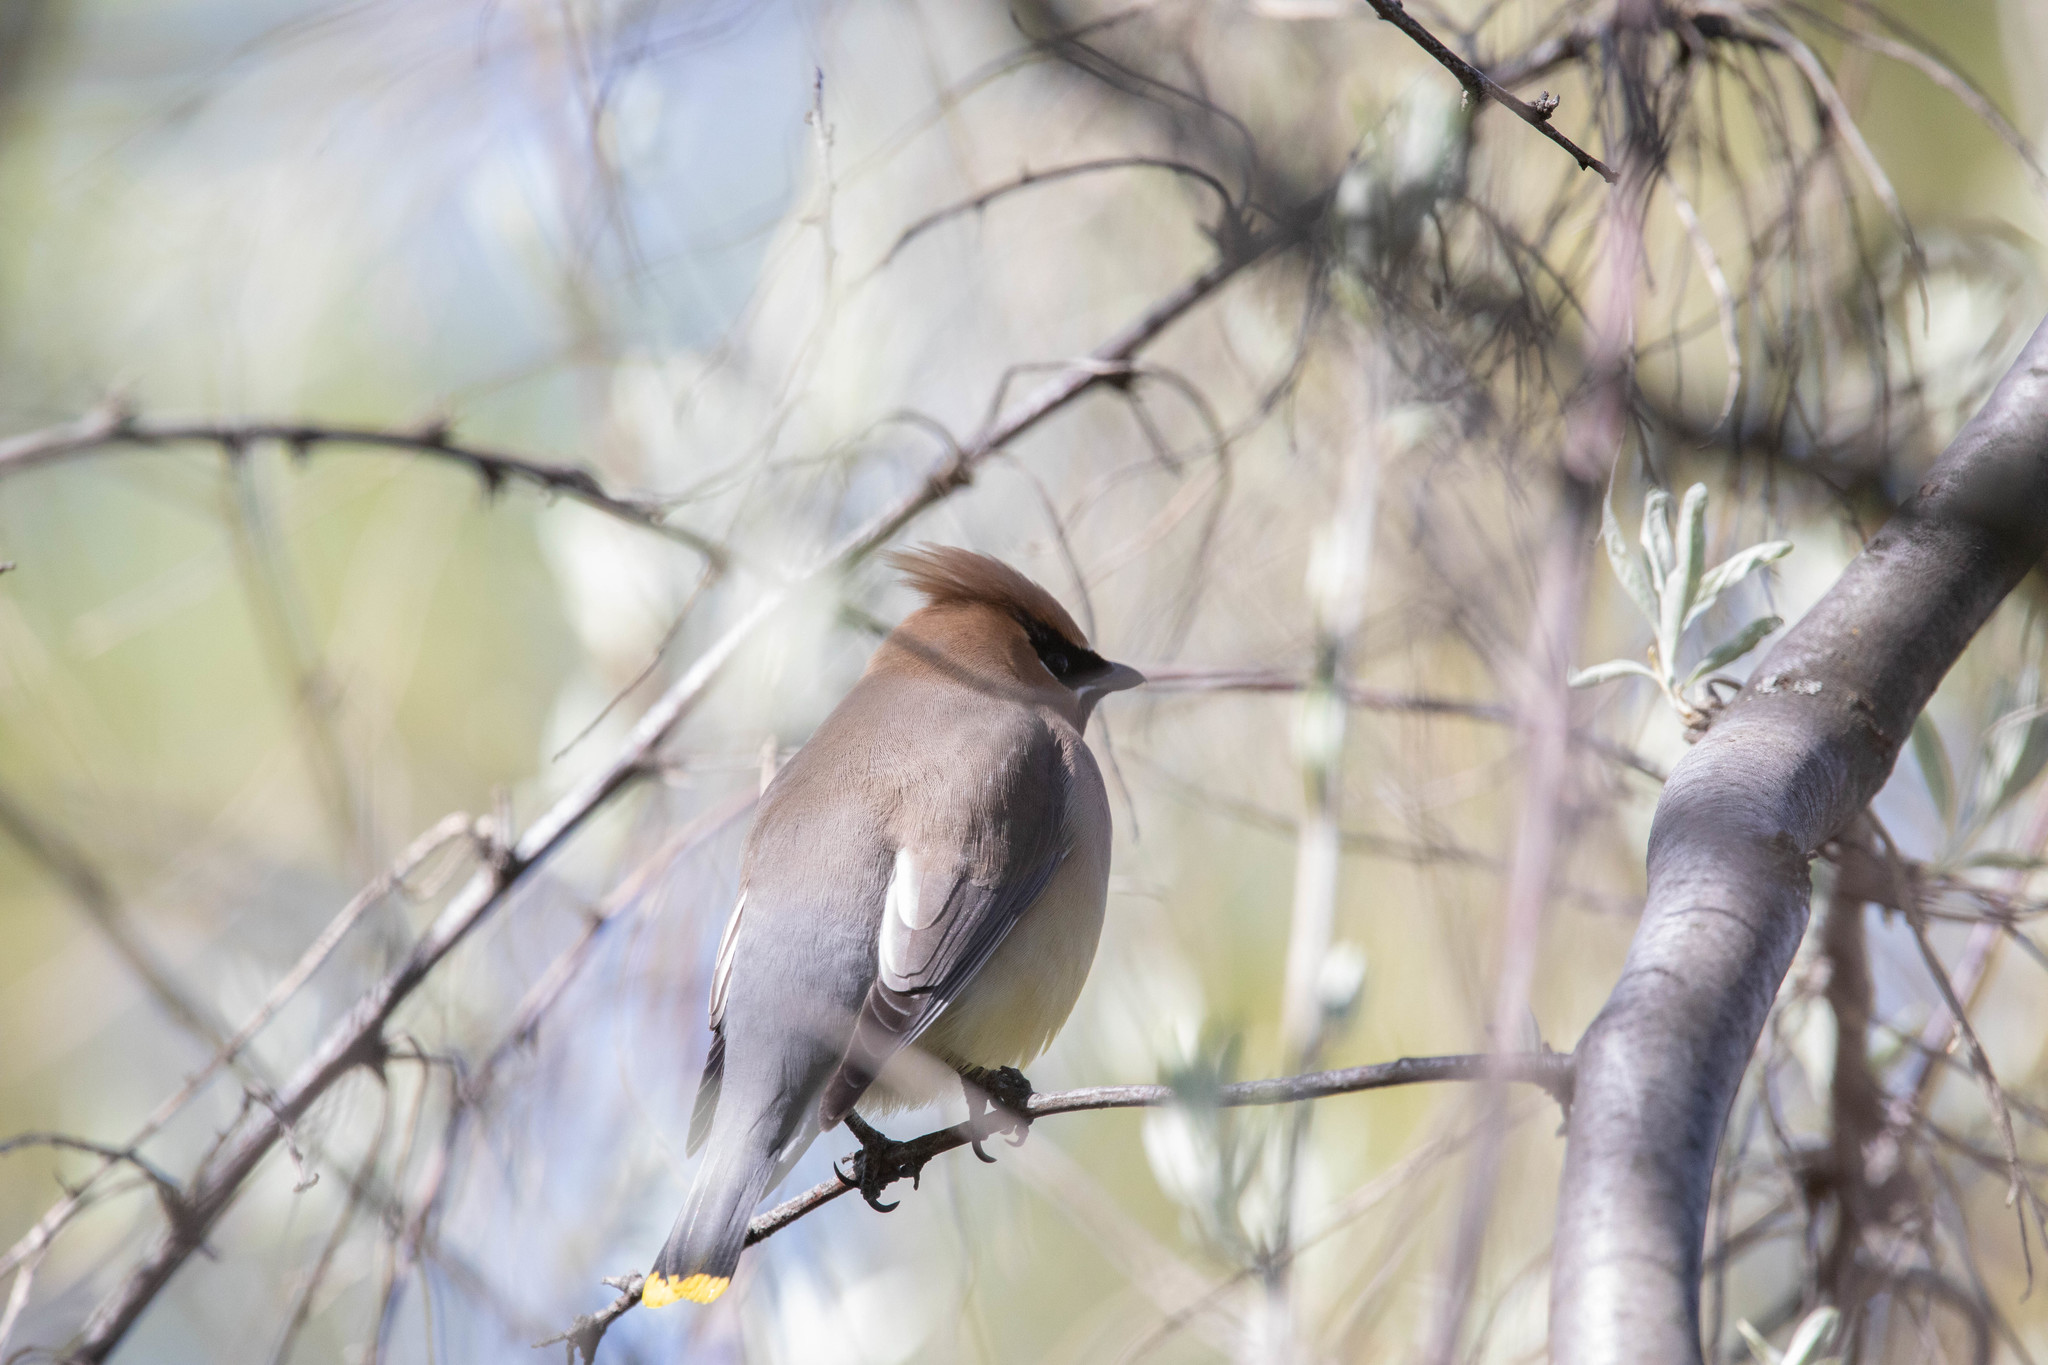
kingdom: Animalia
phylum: Chordata
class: Aves
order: Passeriformes
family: Bombycillidae
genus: Bombycilla
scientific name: Bombycilla cedrorum
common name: Cedar waxwing
